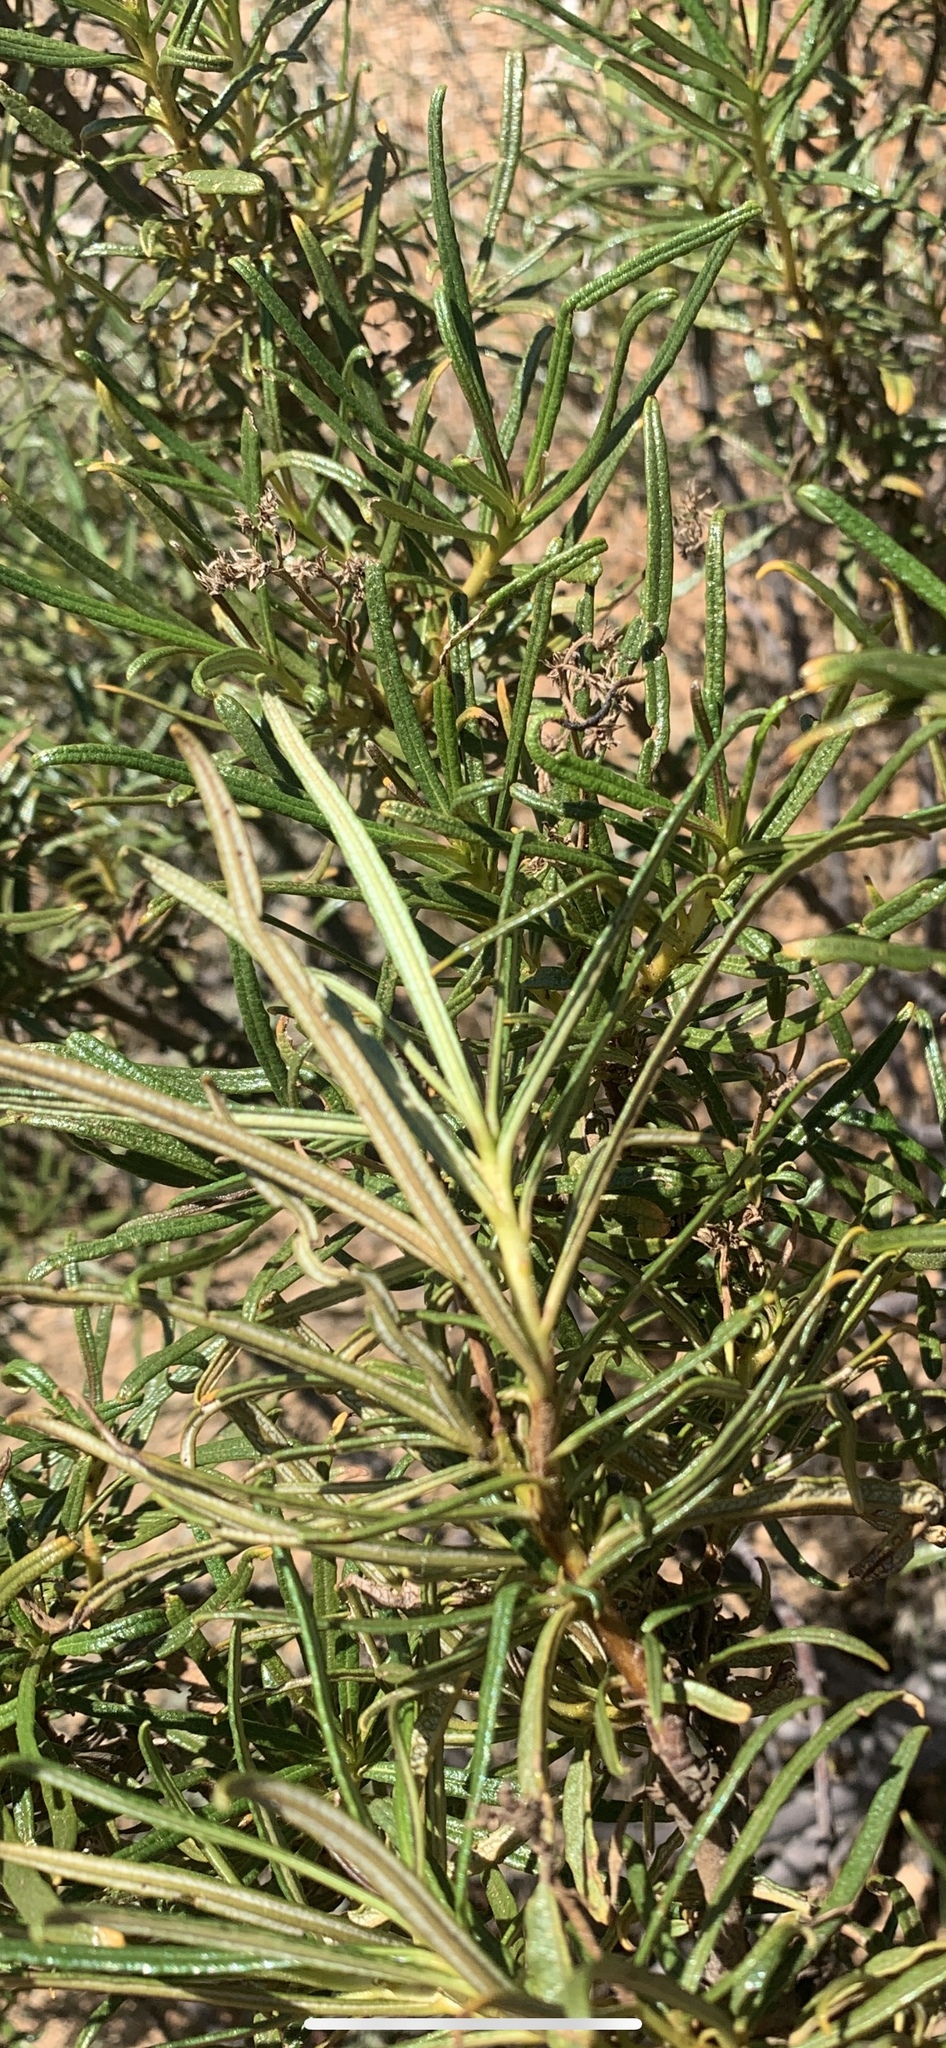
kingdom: Plantae
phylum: Tracheophyta
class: Magnoliopsida
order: Boraginales
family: Namaceae
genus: Eriodictyon
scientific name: Eriodictyon angustifolium
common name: Narrow-leaf yerba santa
